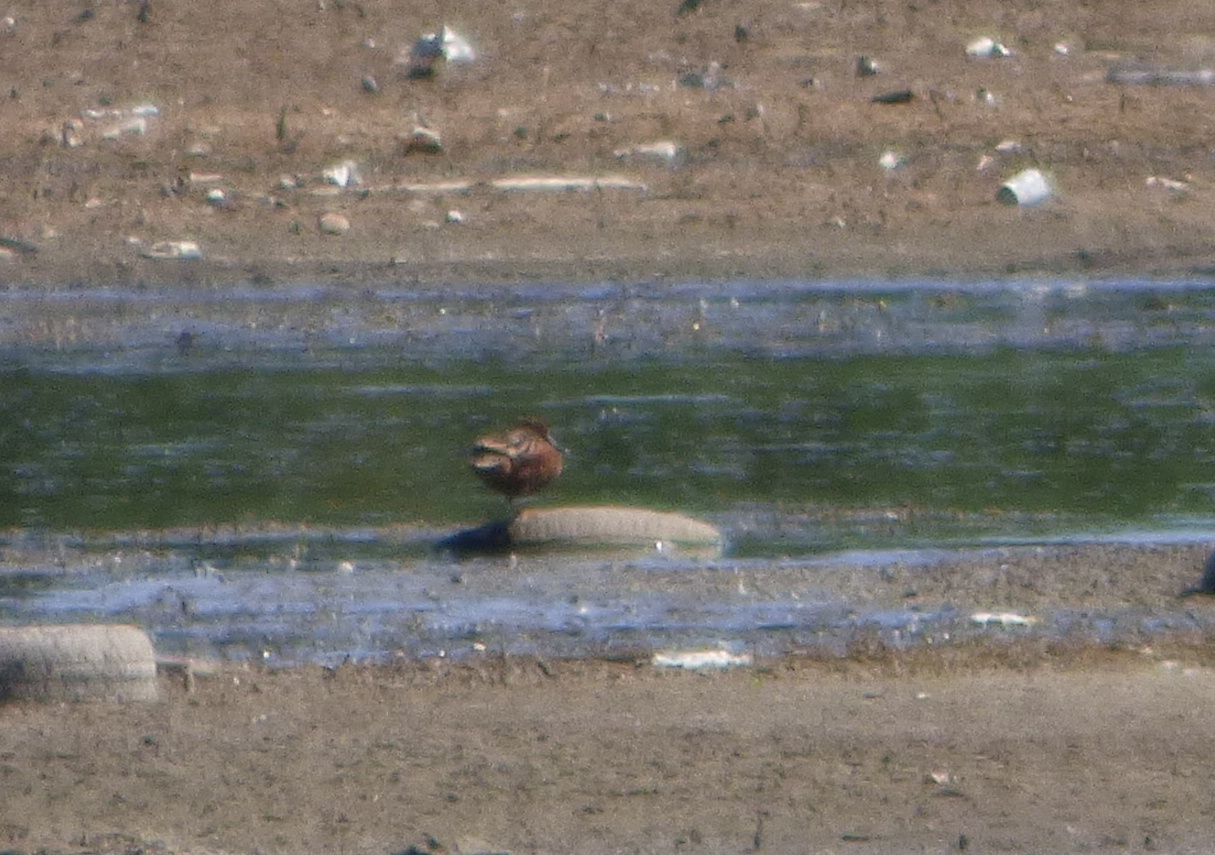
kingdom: Animalia
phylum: Chordata
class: Aves
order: Anseriformes
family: Anatidae
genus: Spatula
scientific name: Spatula cyanoptera
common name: Cinnamon teal
